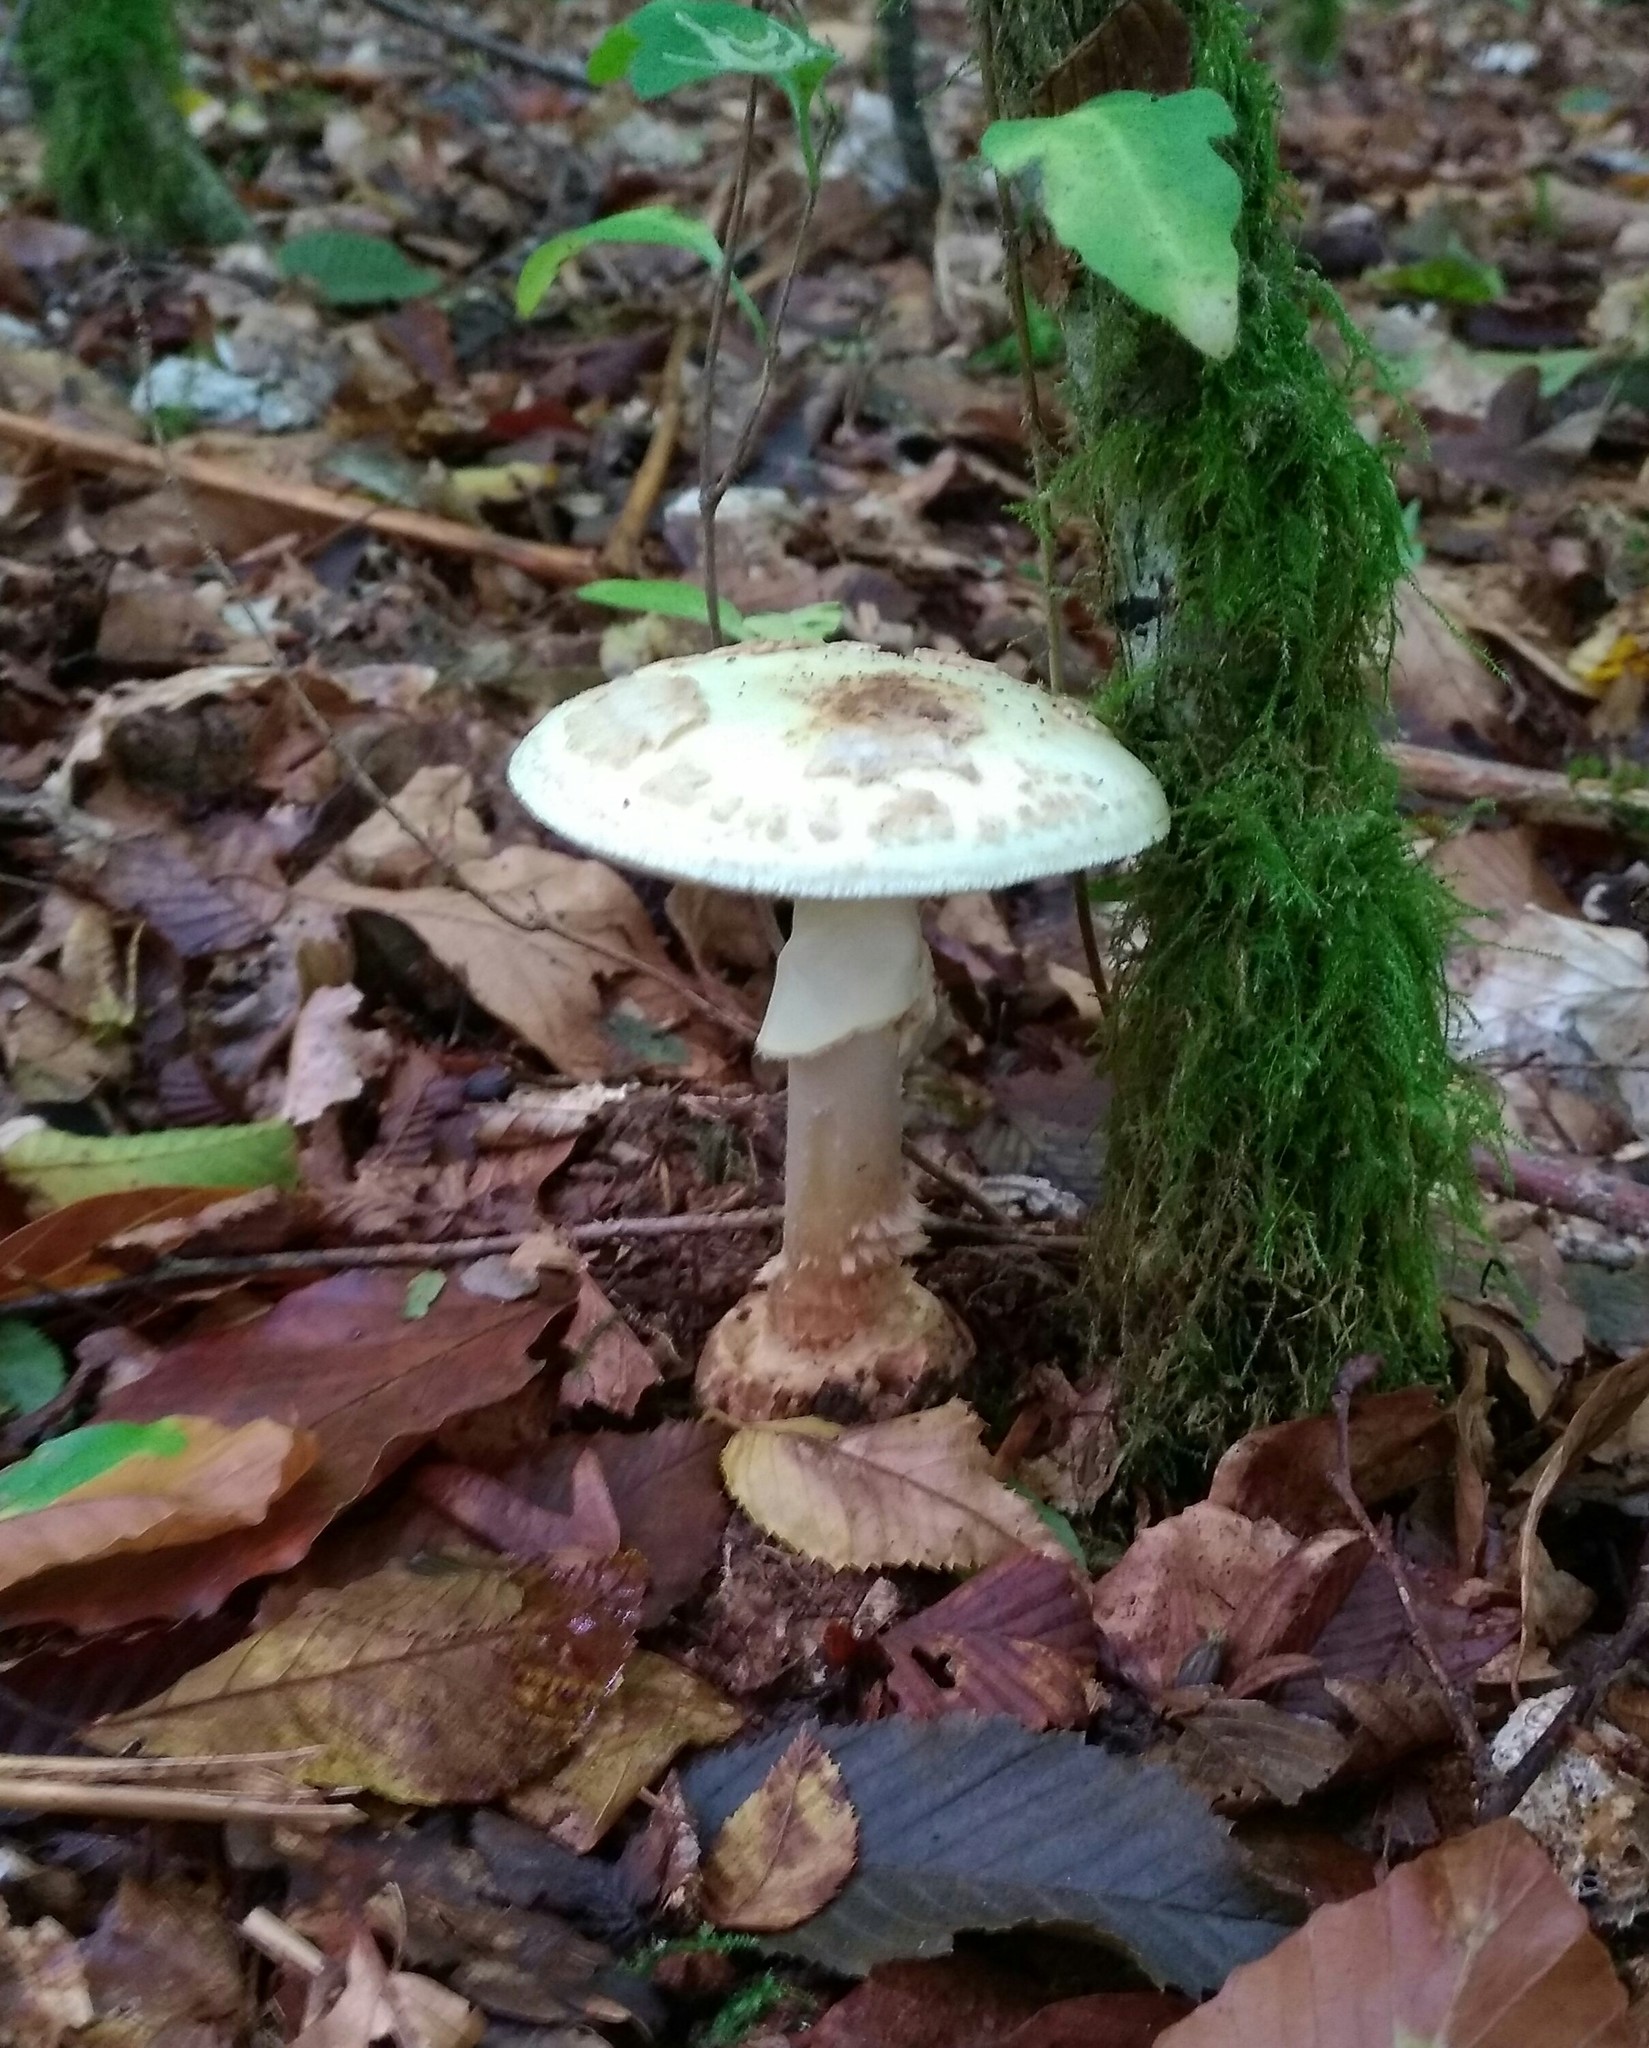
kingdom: Fungi
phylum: Basidiomycota
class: Agaricomycetes
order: Agaricales
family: Amanitaceae
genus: Amanita
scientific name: Amanita citrina
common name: False death-cap
